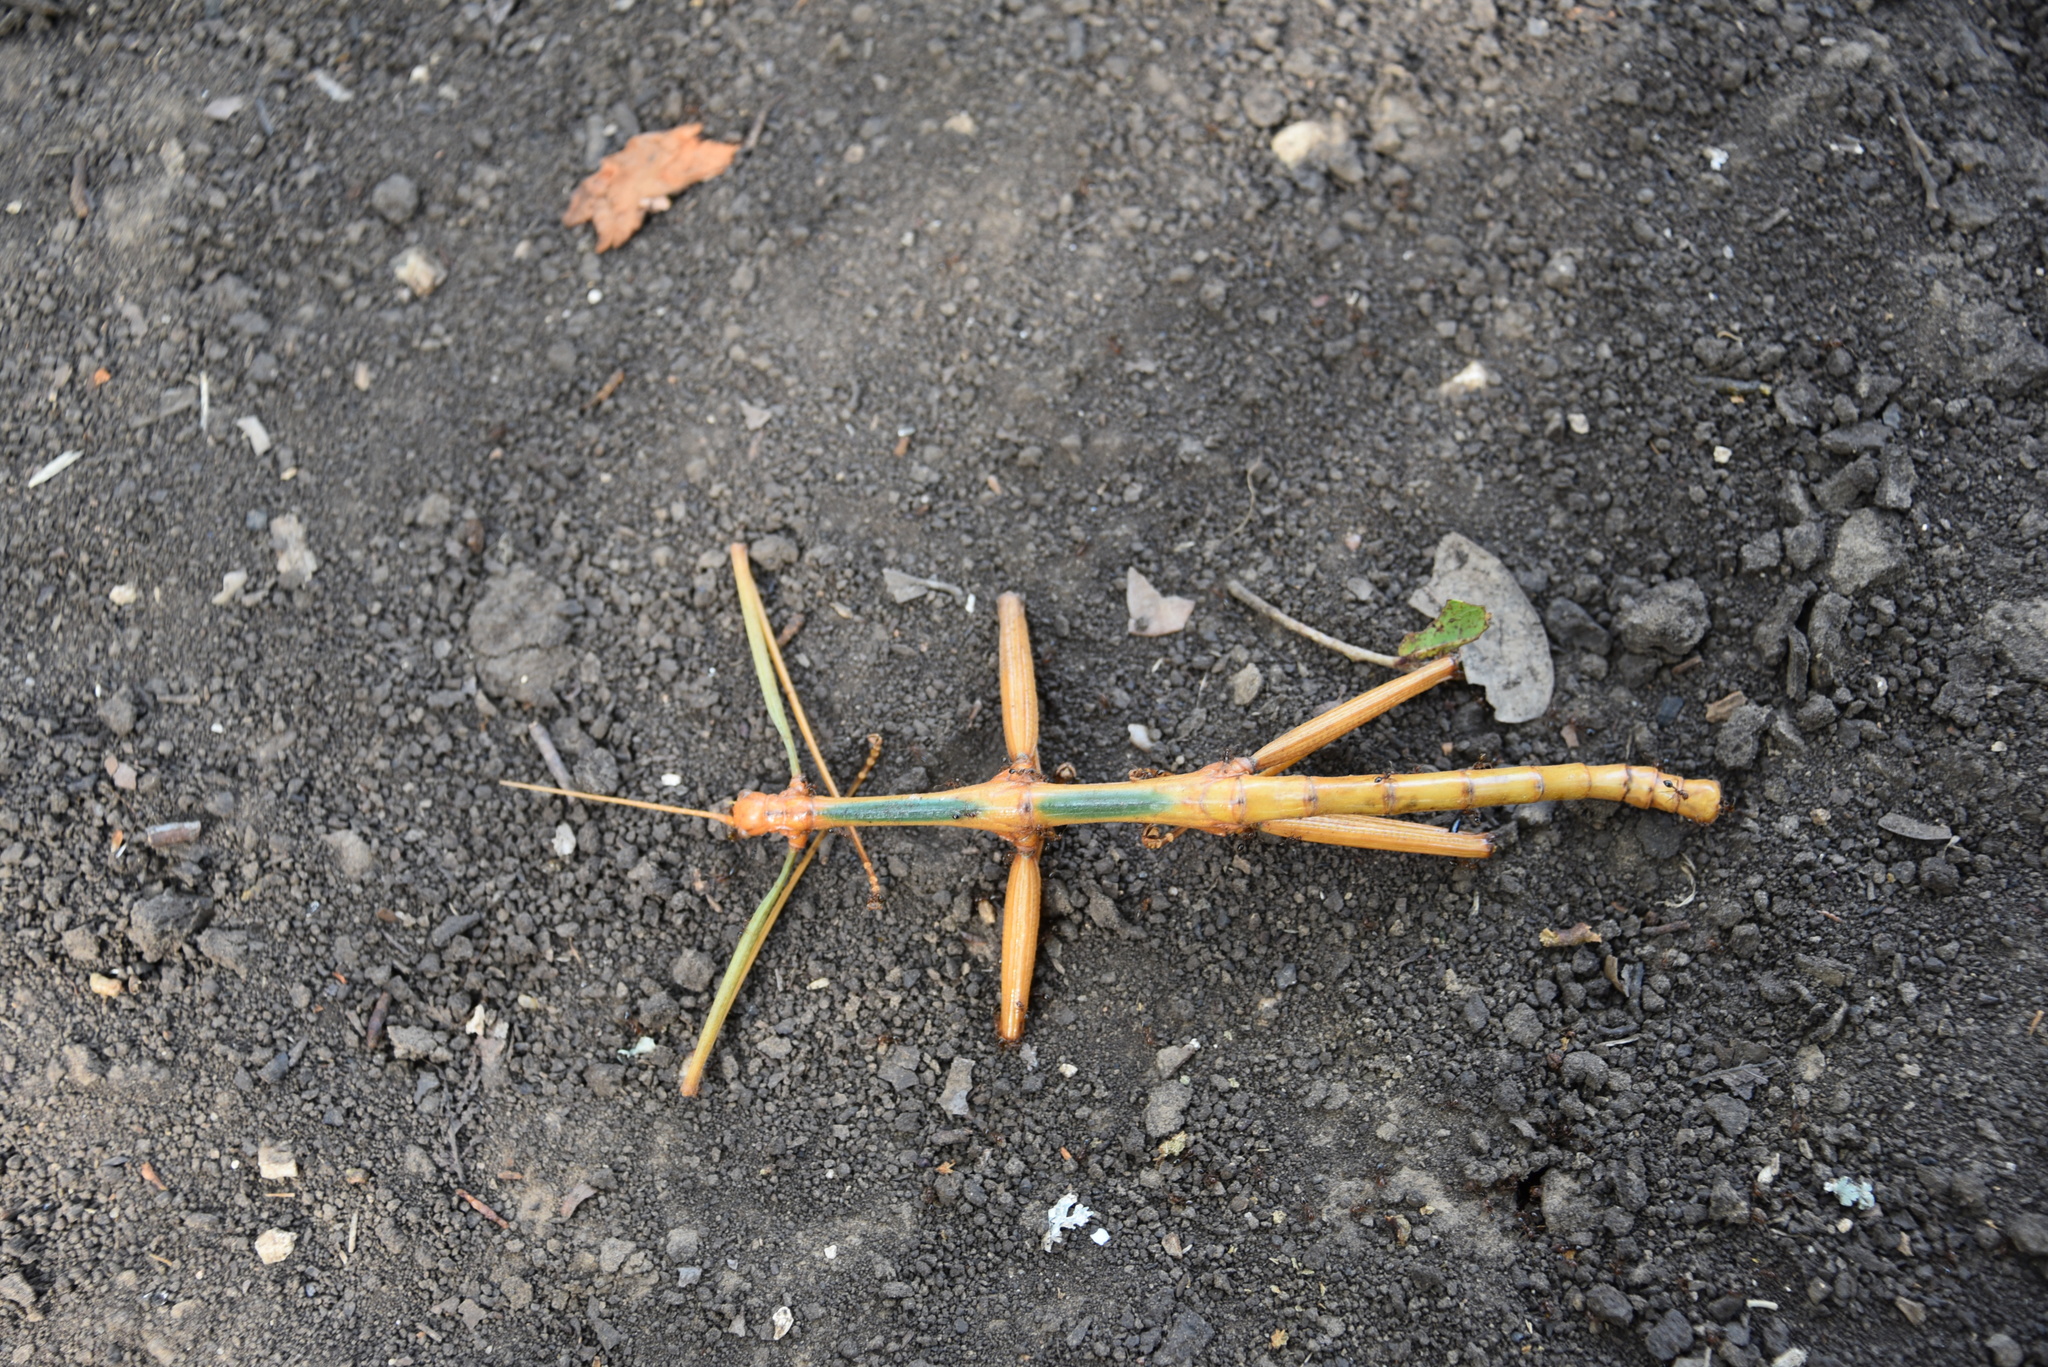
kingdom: Animalia
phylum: Arthropoda
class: Insecta
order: Phasmida
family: Diapheromeridae
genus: Megaphasma
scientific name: Megaphasma denticrus
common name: Giant walkingstick
